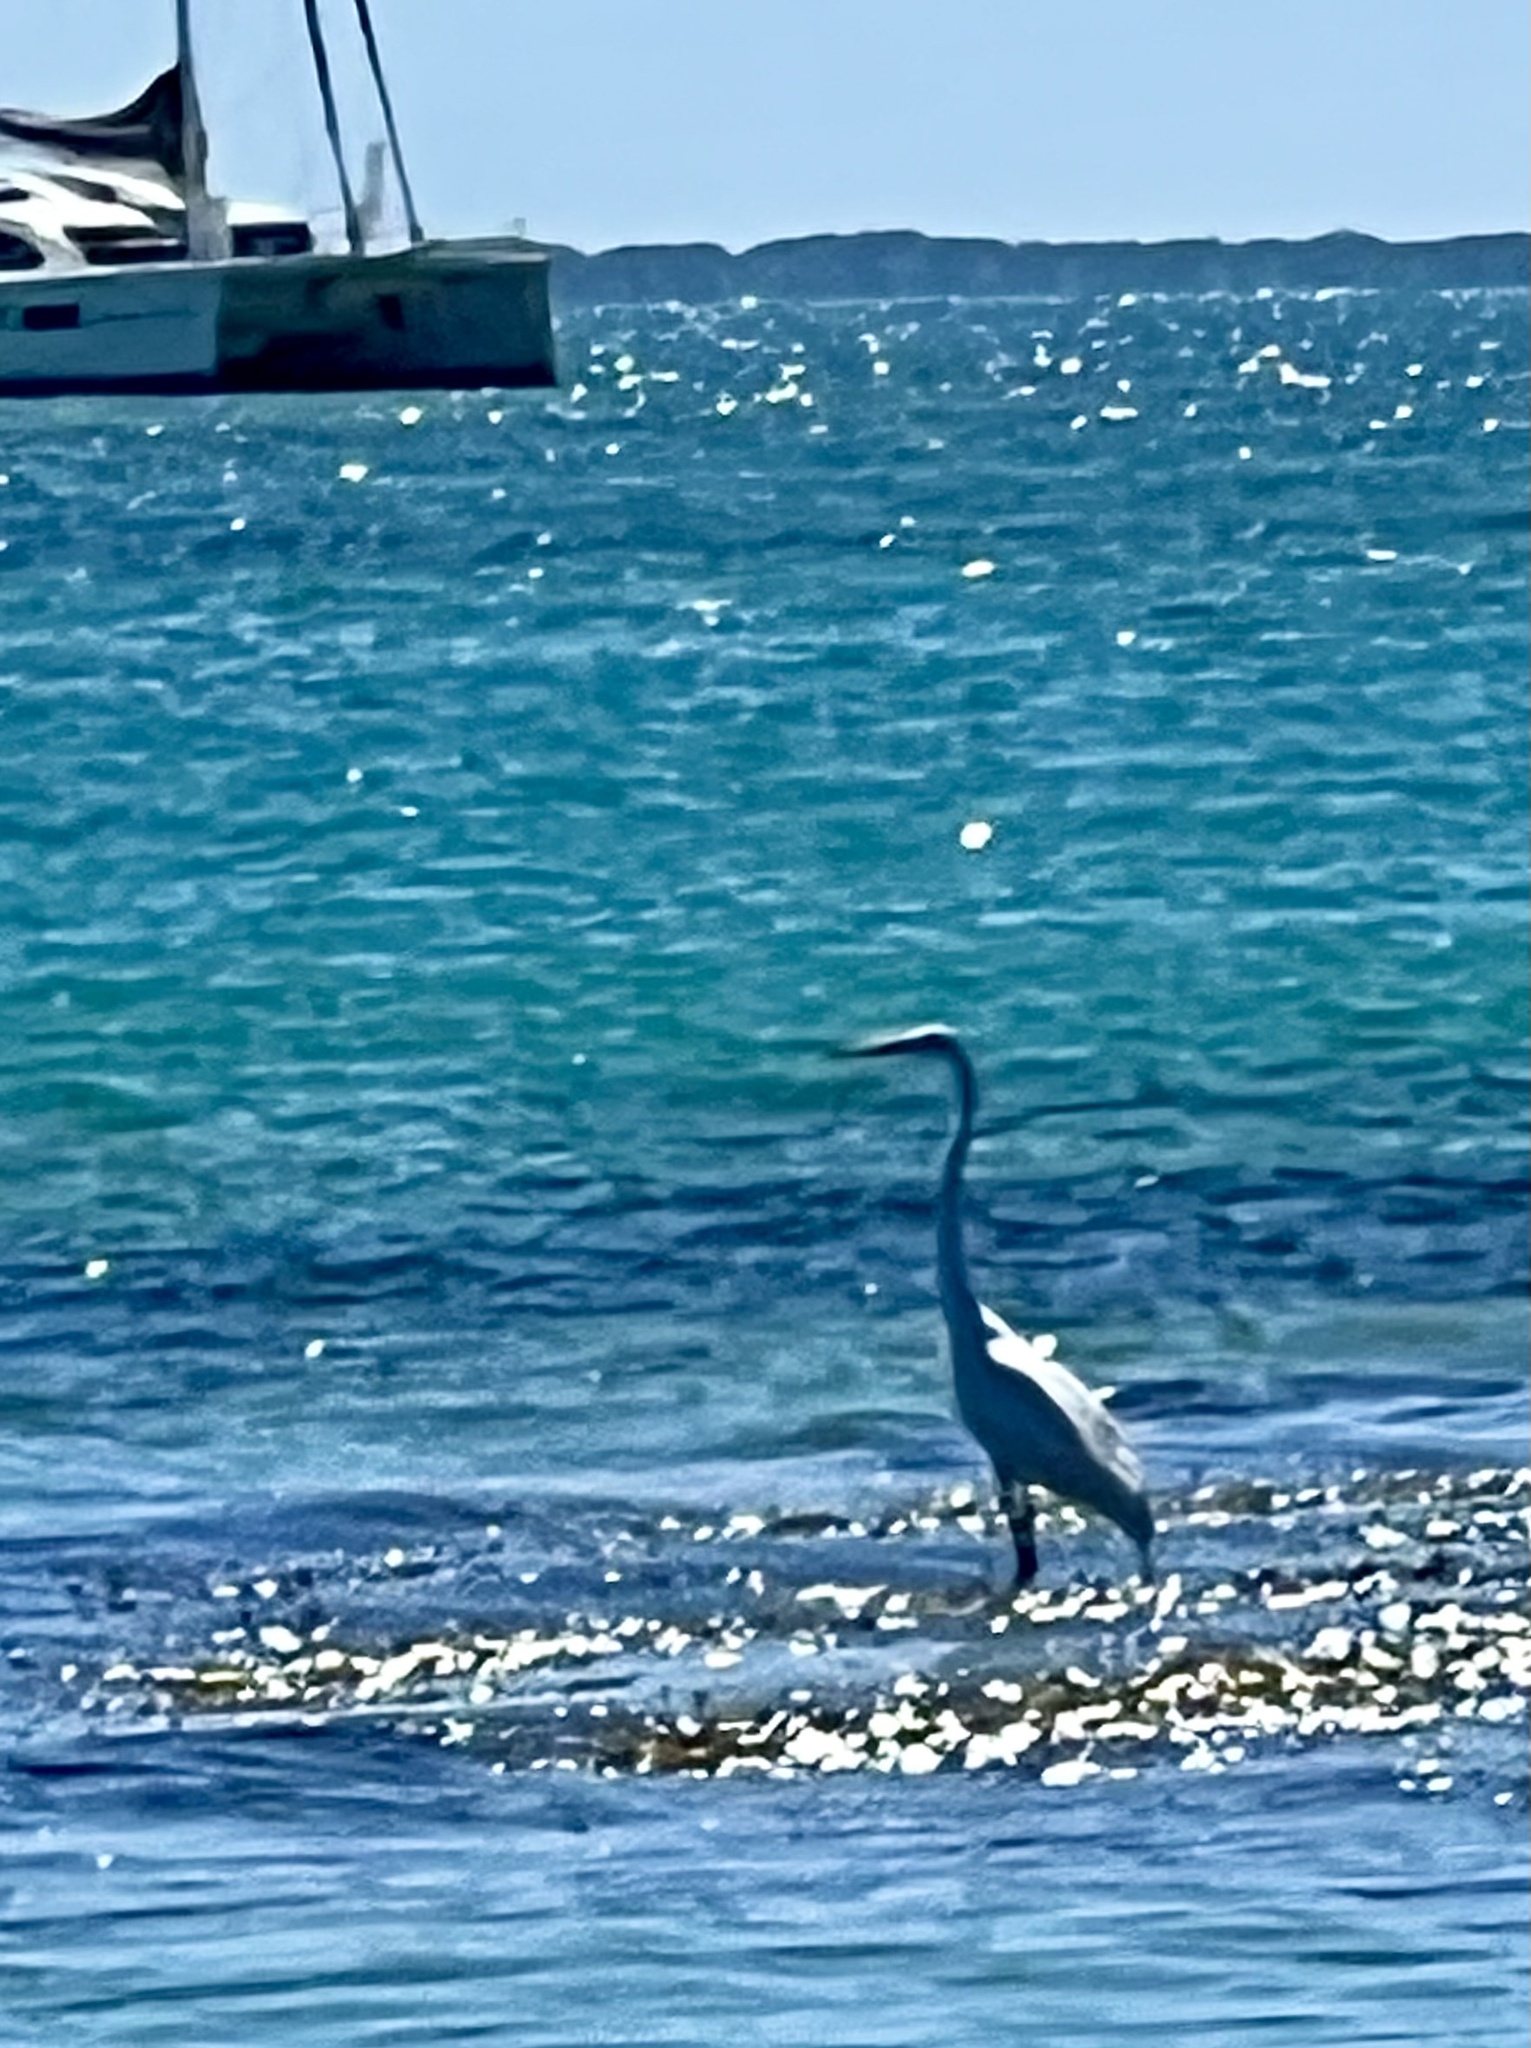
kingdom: Animalia
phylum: Chordata
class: Aves
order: Pelecaniformes
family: Ardeidae
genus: Egretta
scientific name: Egretta thula
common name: Snowy egret
